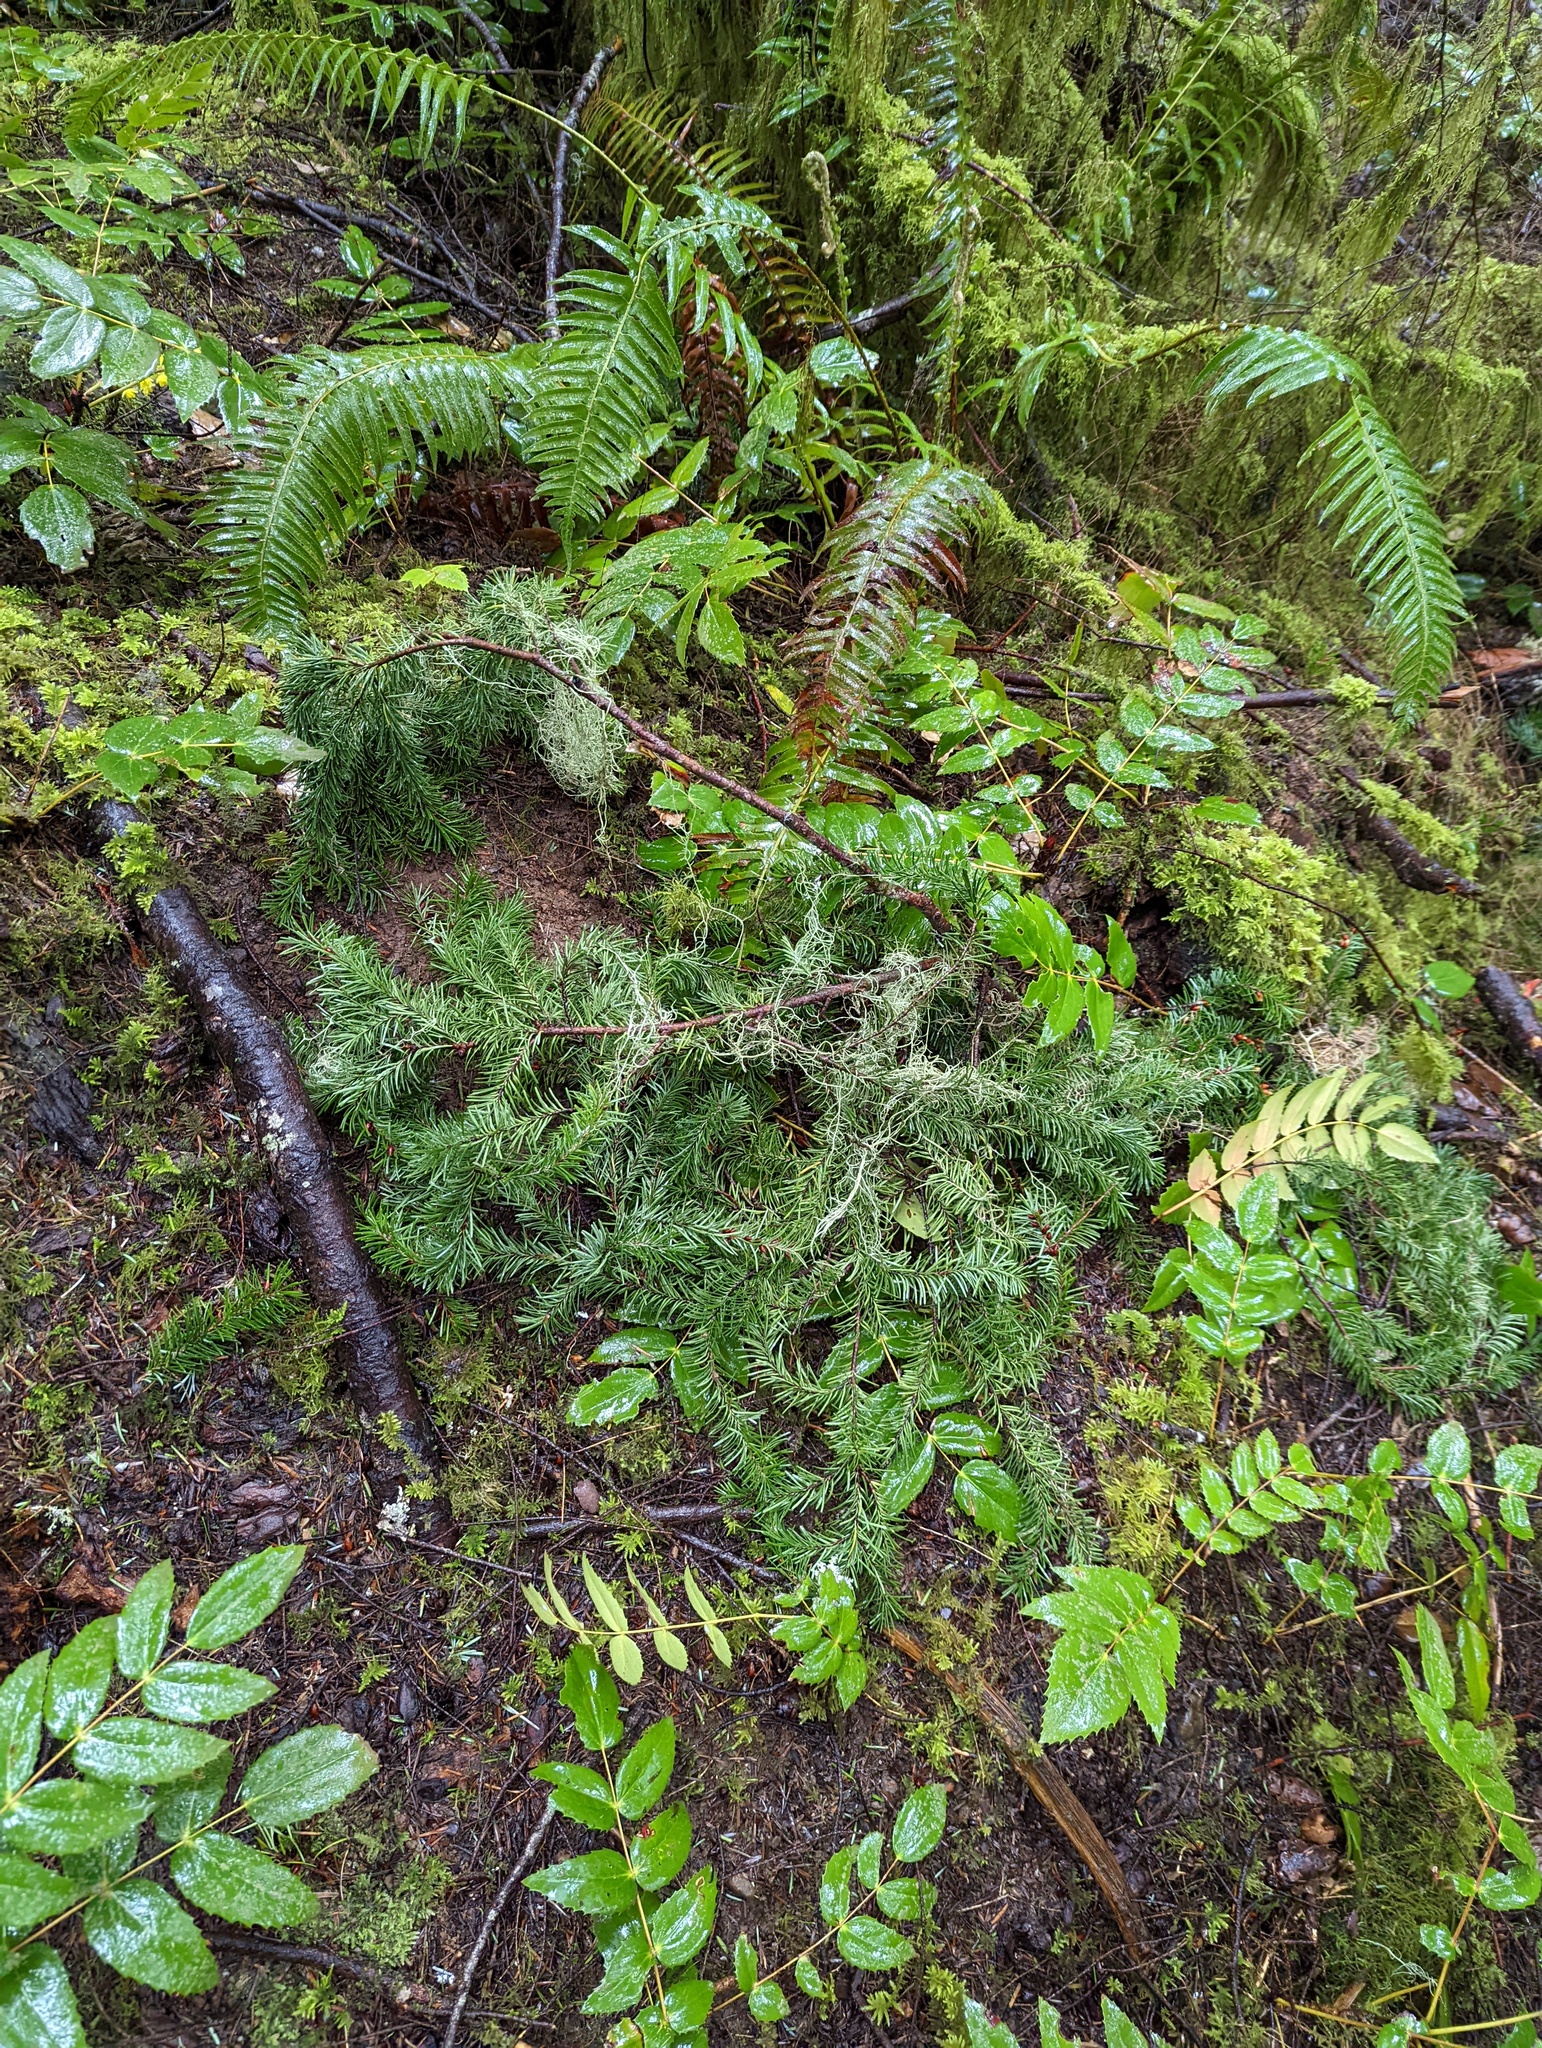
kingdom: Plantae
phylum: Tracheophyta
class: Pinopsida
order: Pinales
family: Pinaceae
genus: Pseudotsuga
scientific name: Pseudotsuga menziesii
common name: Douglas fir
